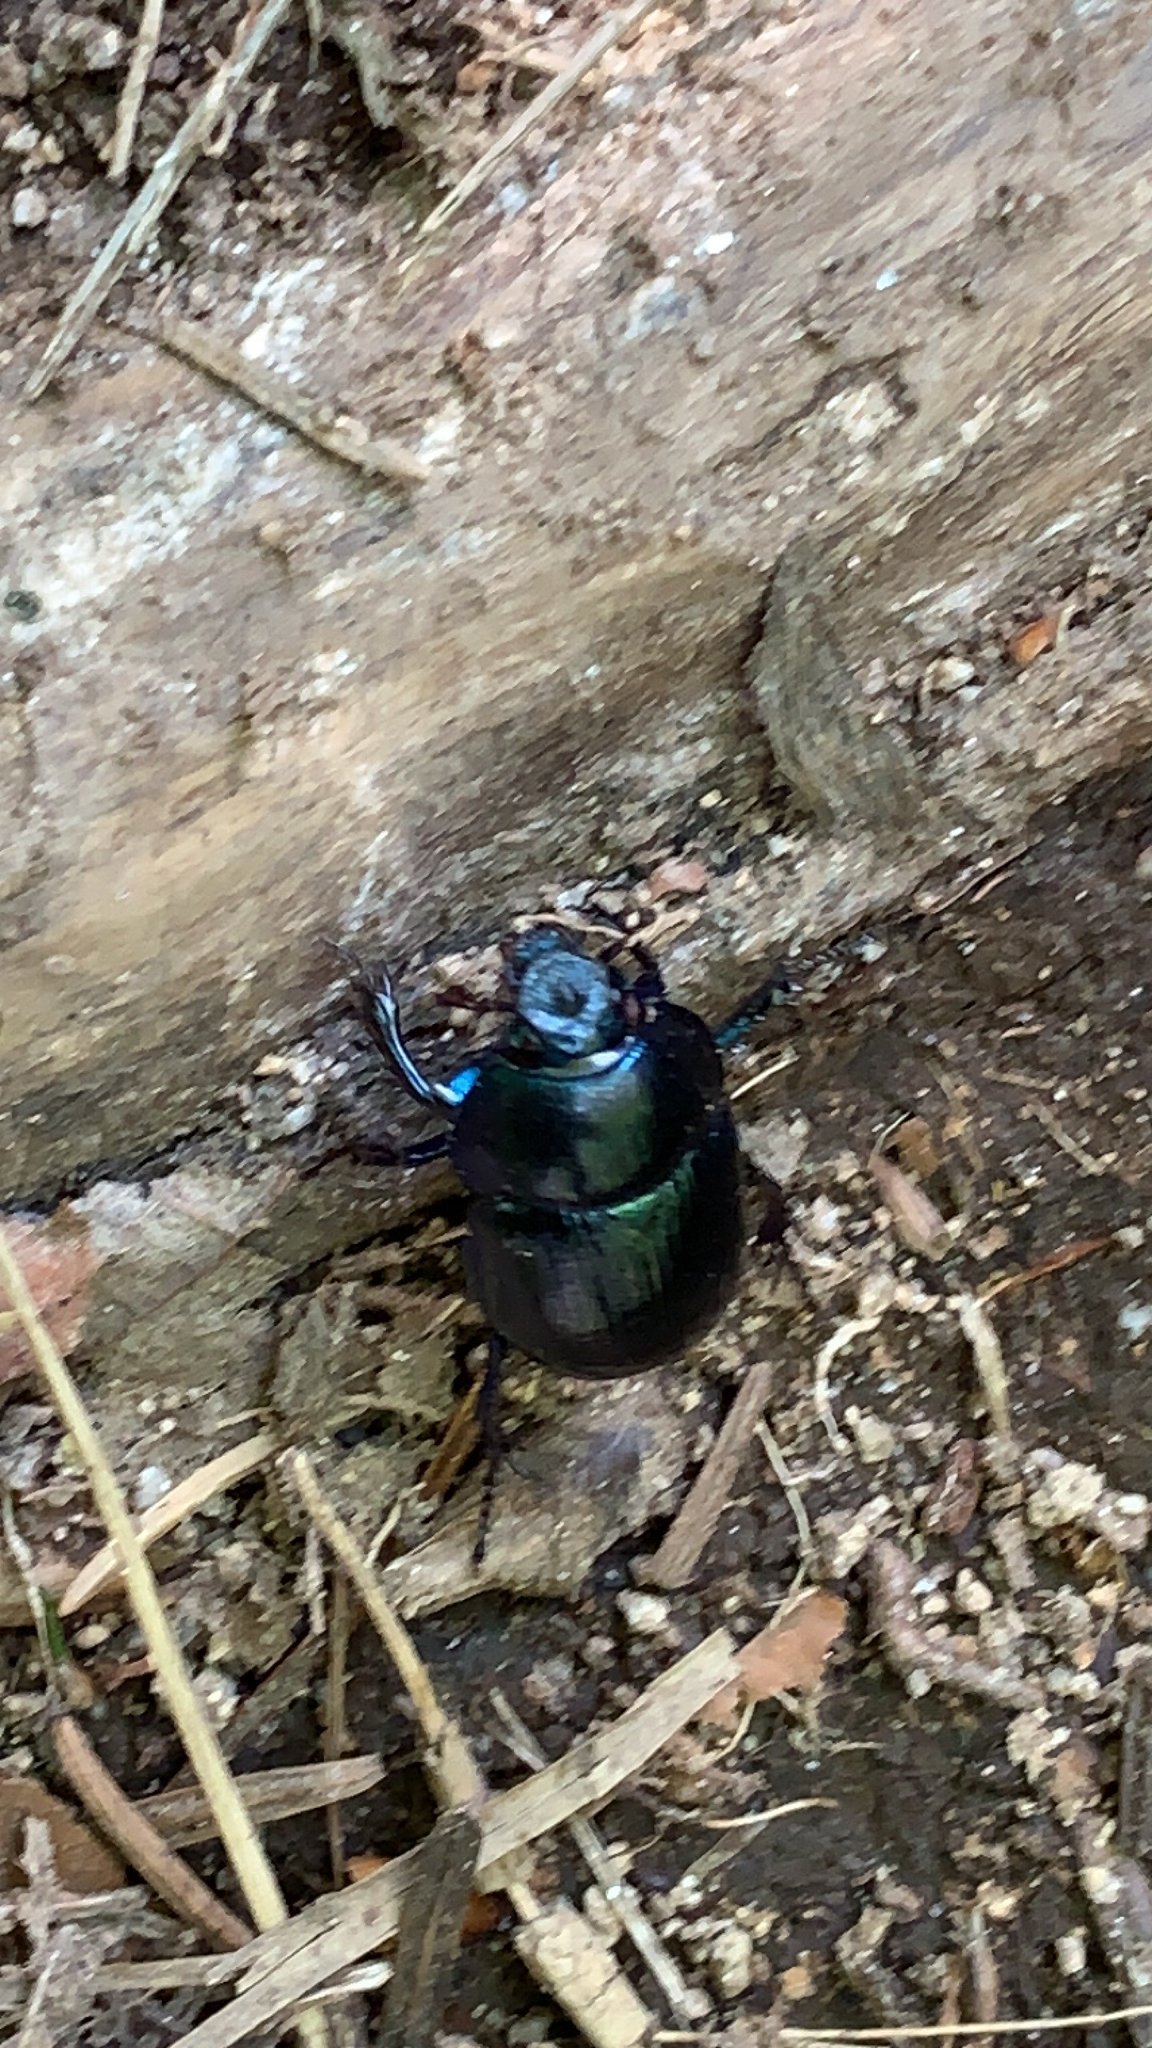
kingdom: Animalia
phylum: Arthropoda
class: Insecta
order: Coleoptera
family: Geotrupidae
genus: Anoplotrupes
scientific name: Anoplotrupes stercorosus
